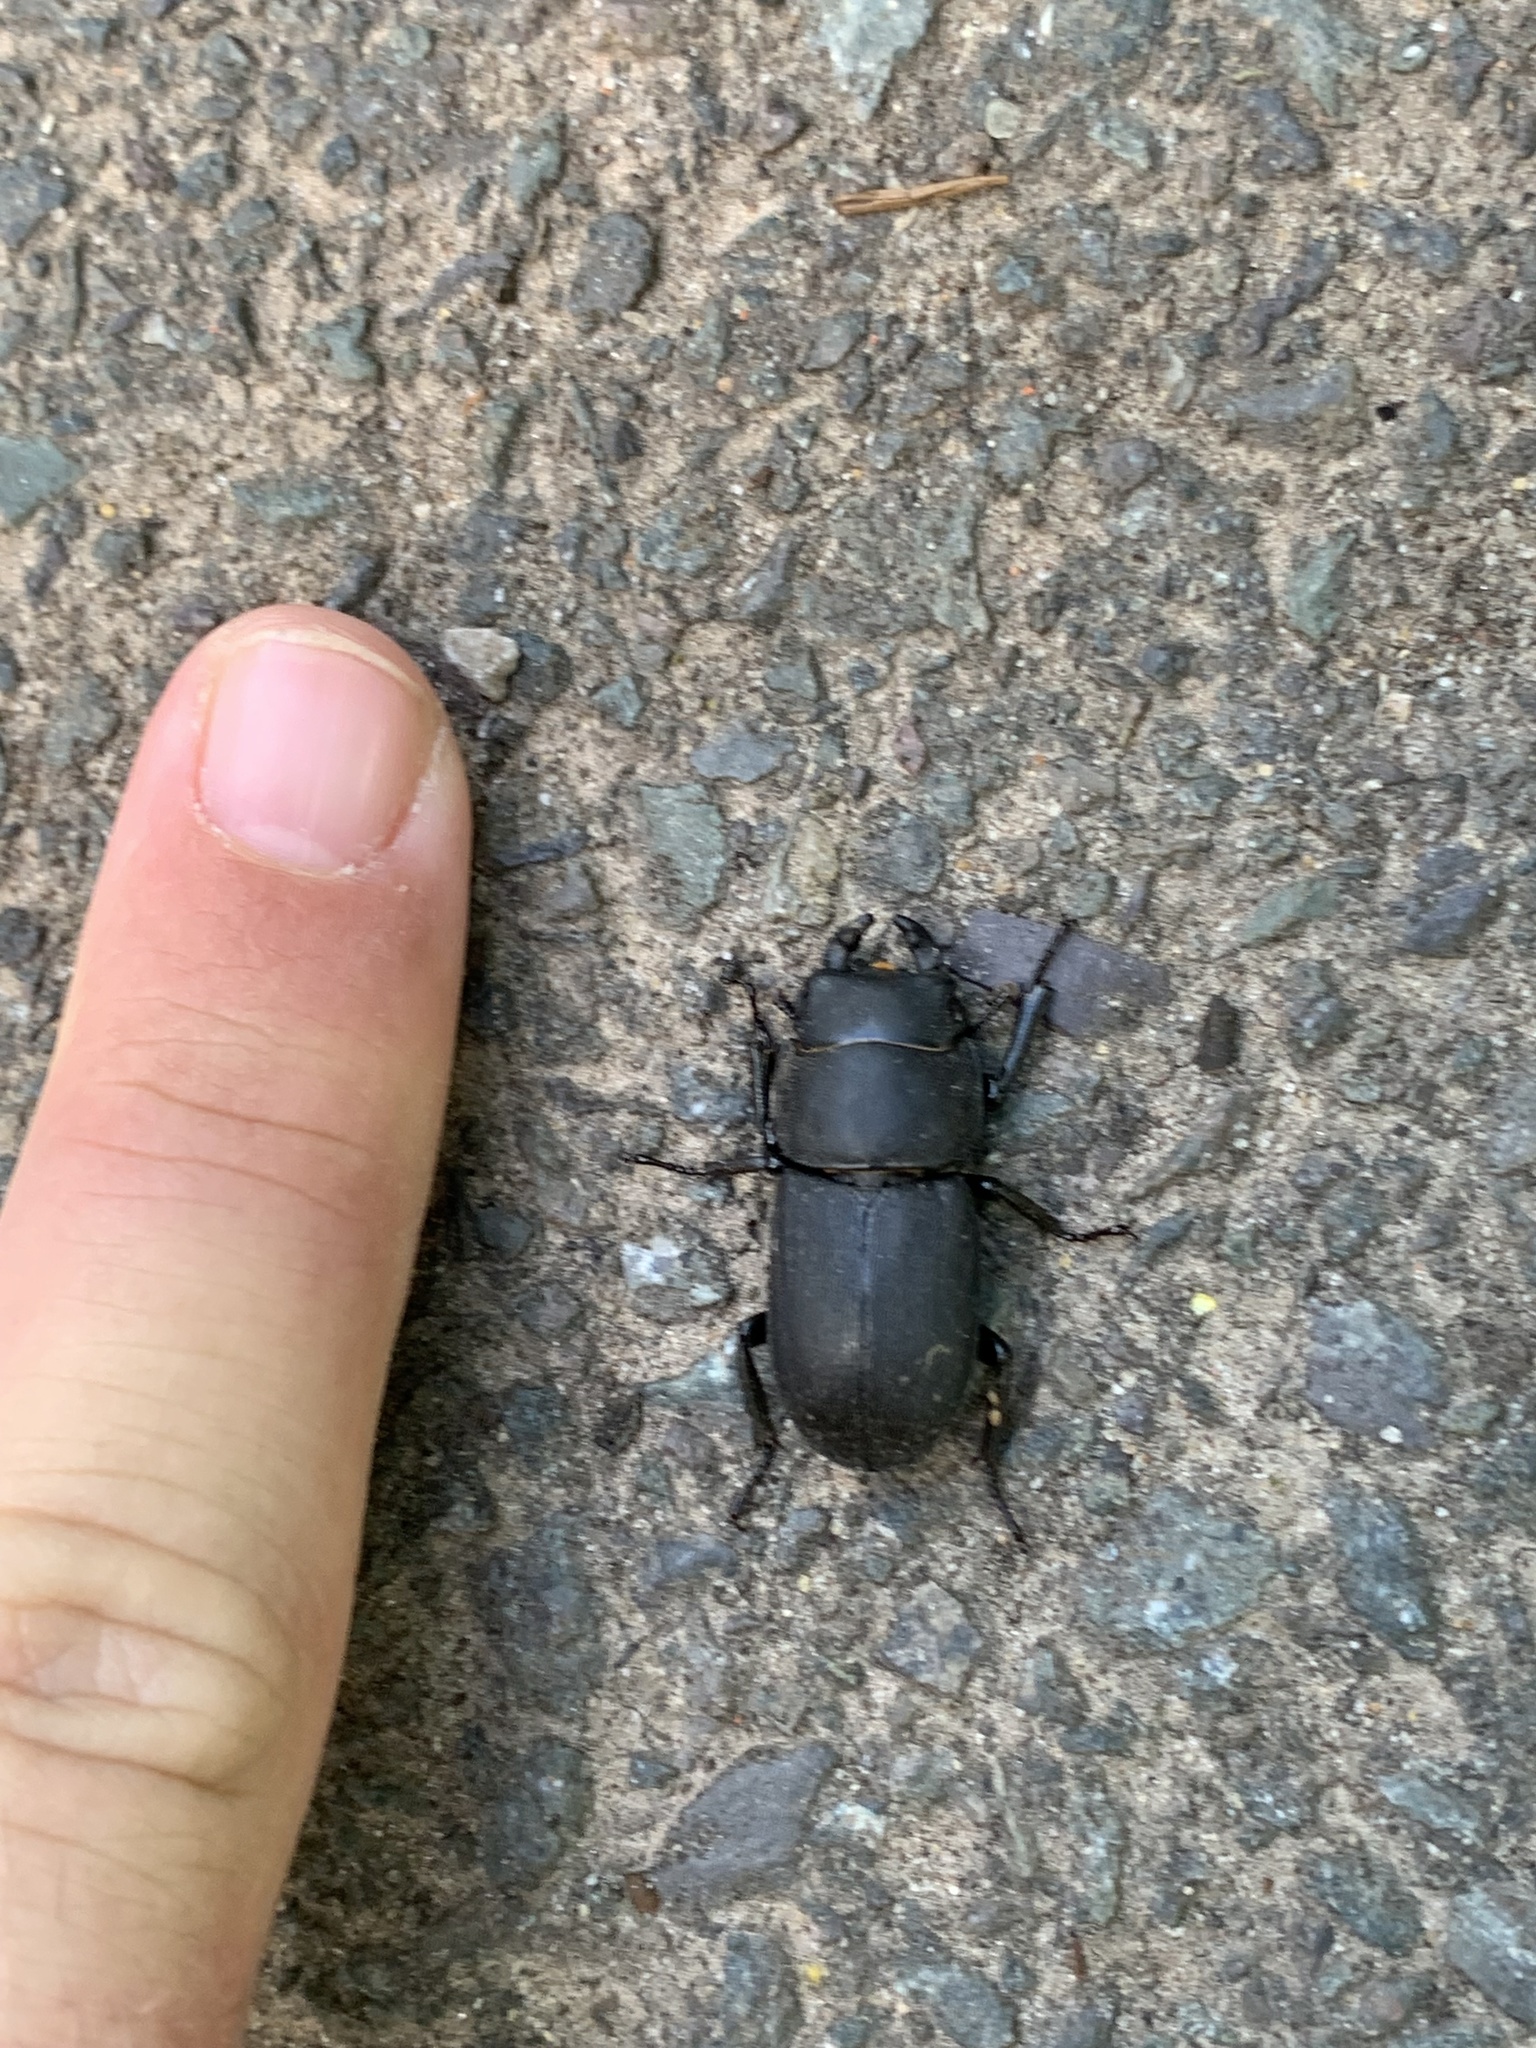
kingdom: Animalia
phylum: Arthropoda
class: Insecta
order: Coleoptera
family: Lucanidae
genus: Dorcus
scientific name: Dorcus parallelipipedus
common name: Lesser stag beetle
